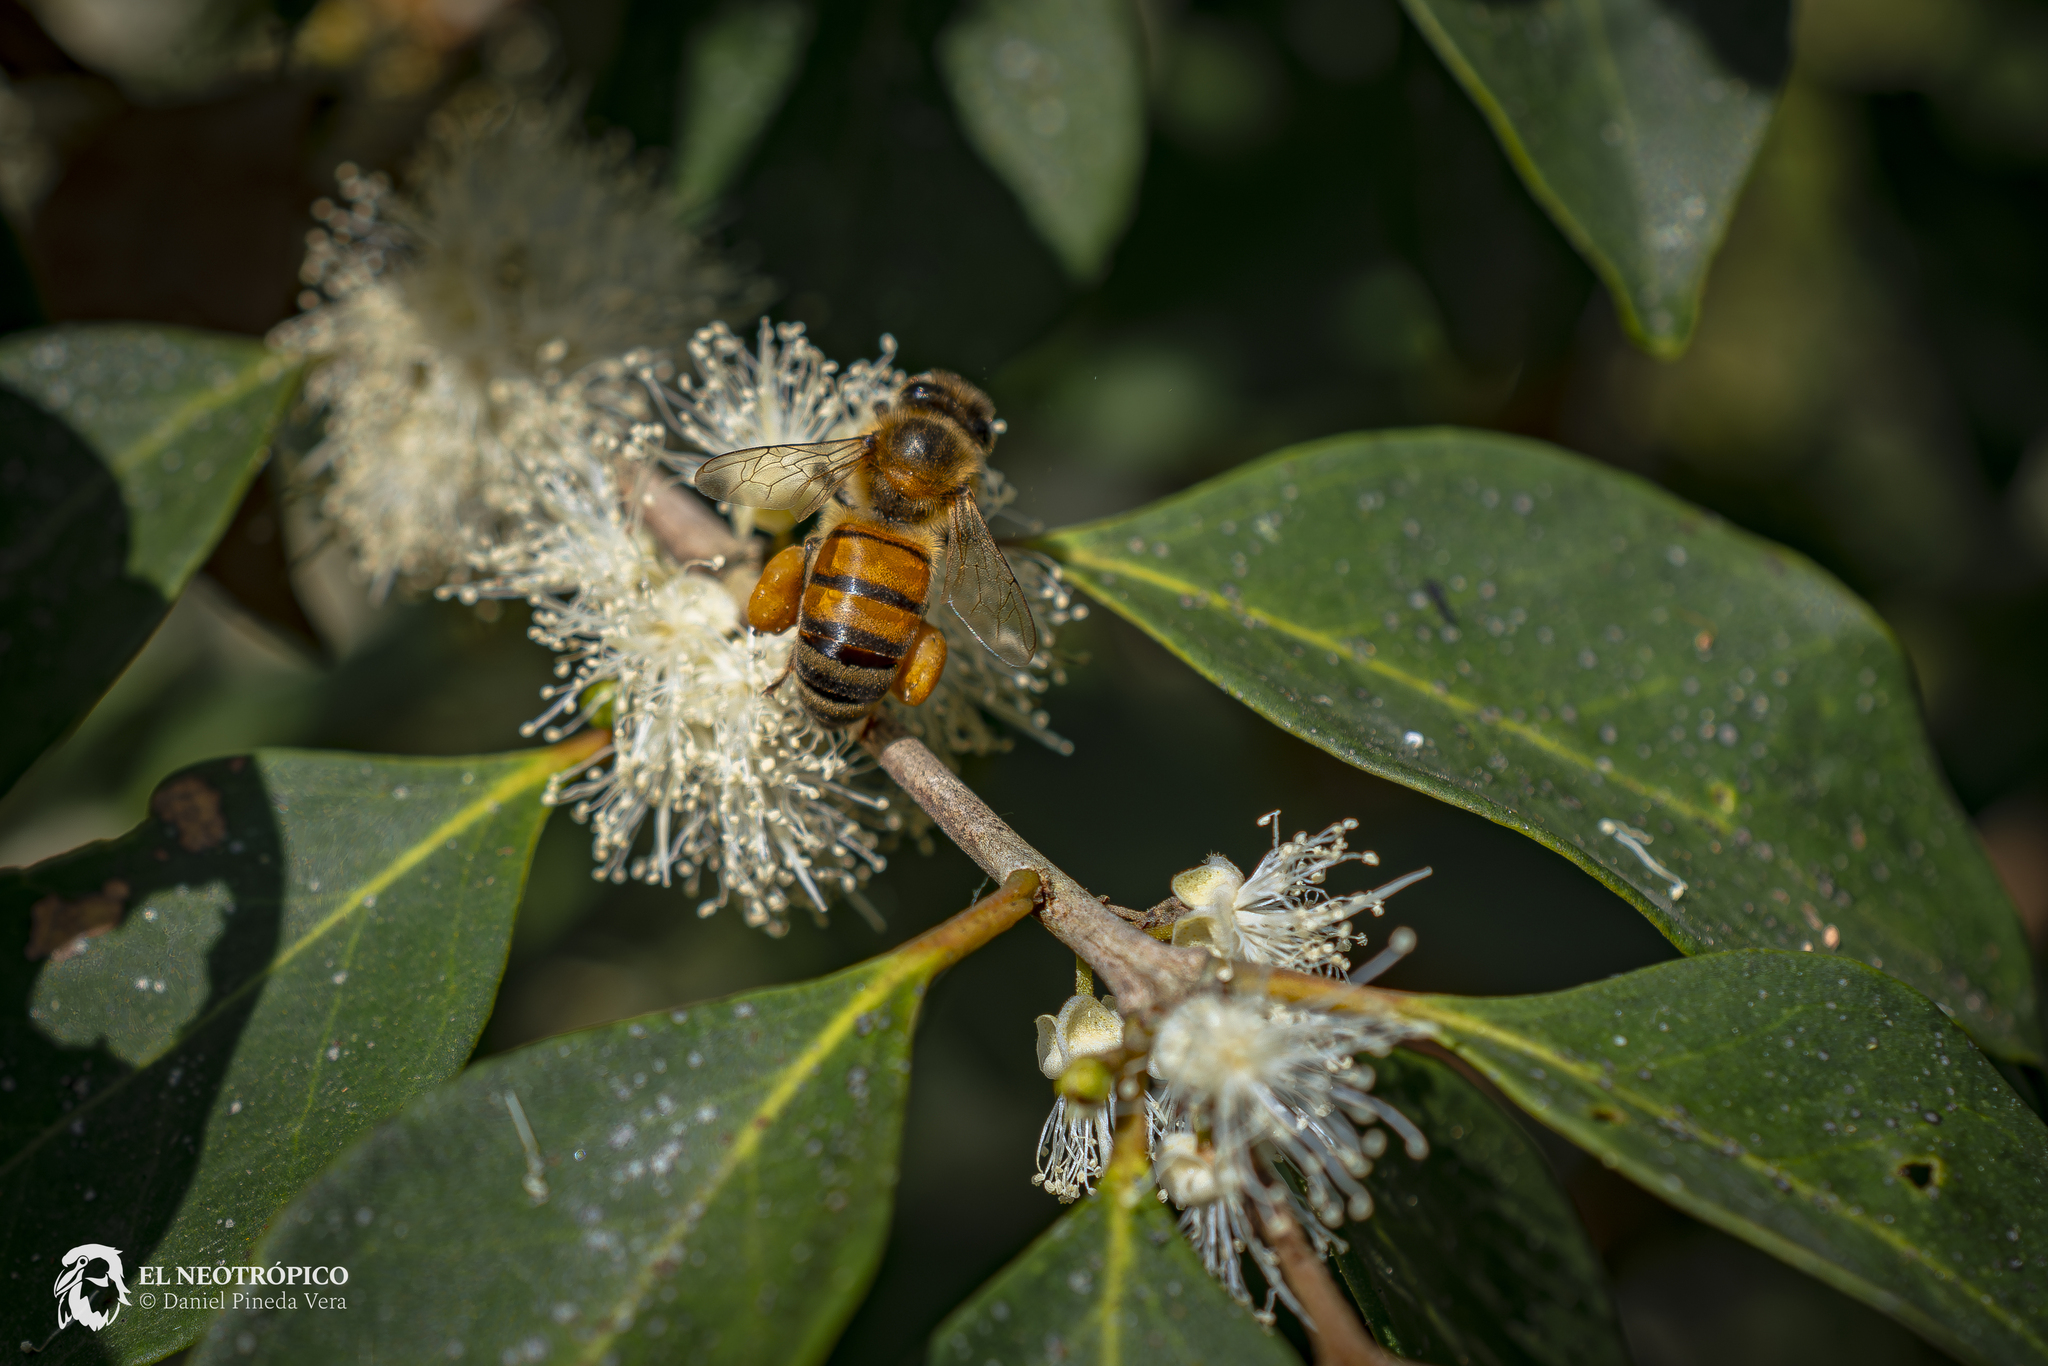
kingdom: Animalia
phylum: Arthropoda
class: Insecta
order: Hymenoptera
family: Apidae
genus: Apis
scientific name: Apis mellifera
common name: Honey bee
